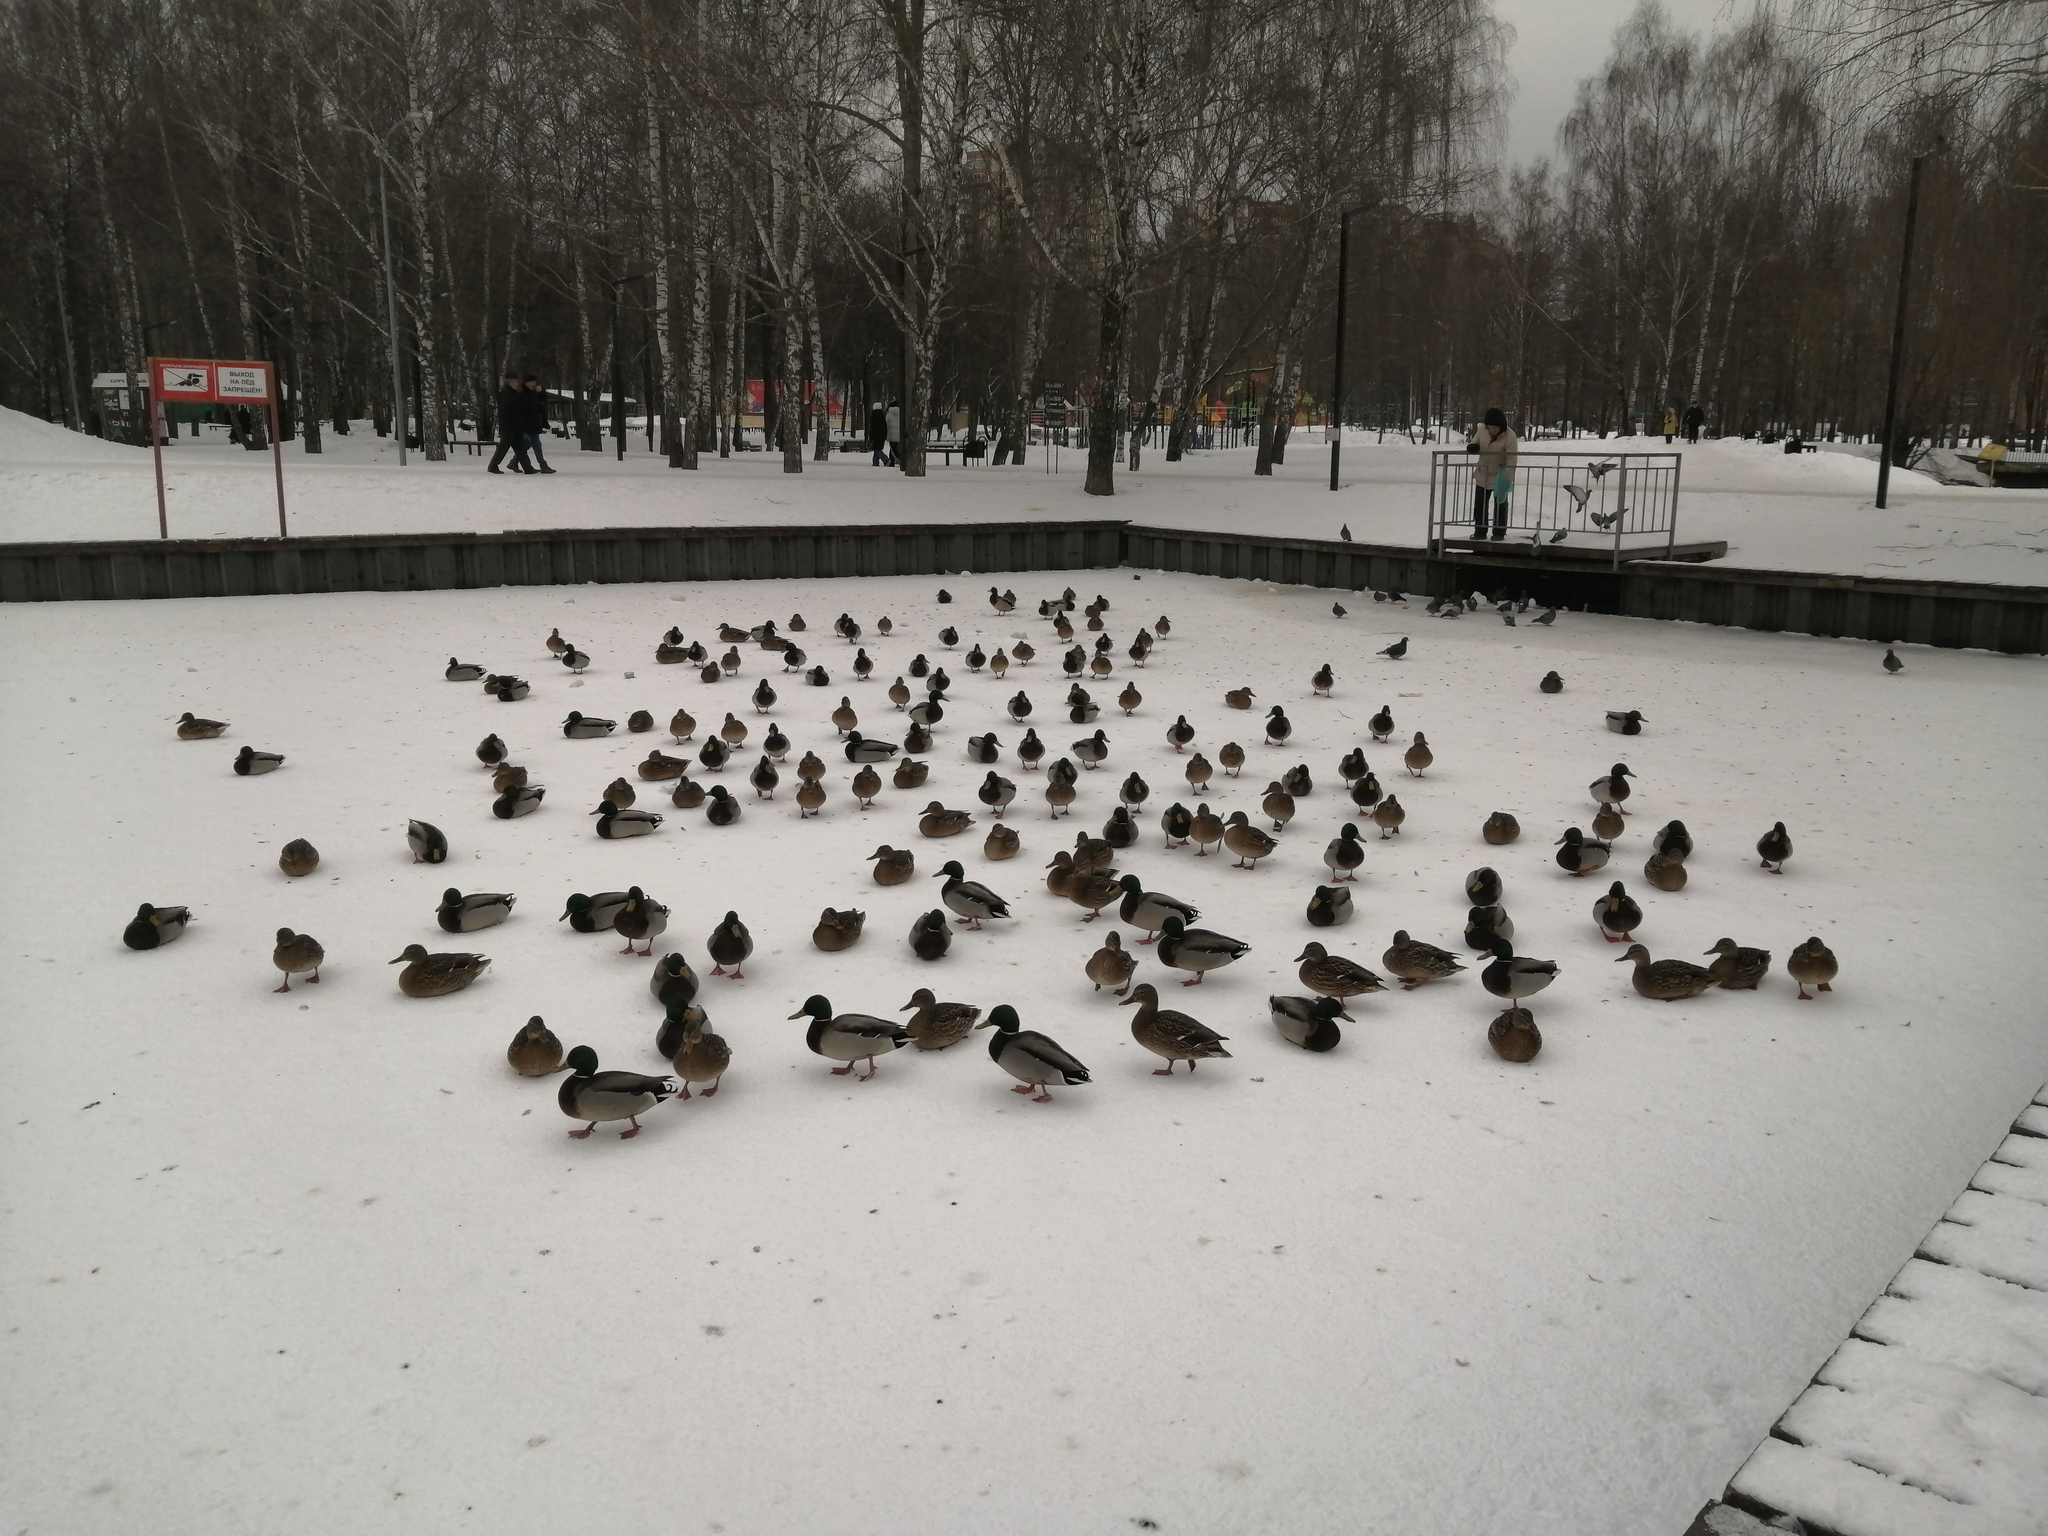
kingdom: Animalia
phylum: Chordata
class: Aves
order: Anseriformes
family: Anatidae
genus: Anas
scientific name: Anas platyrhynchos
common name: Mallard
